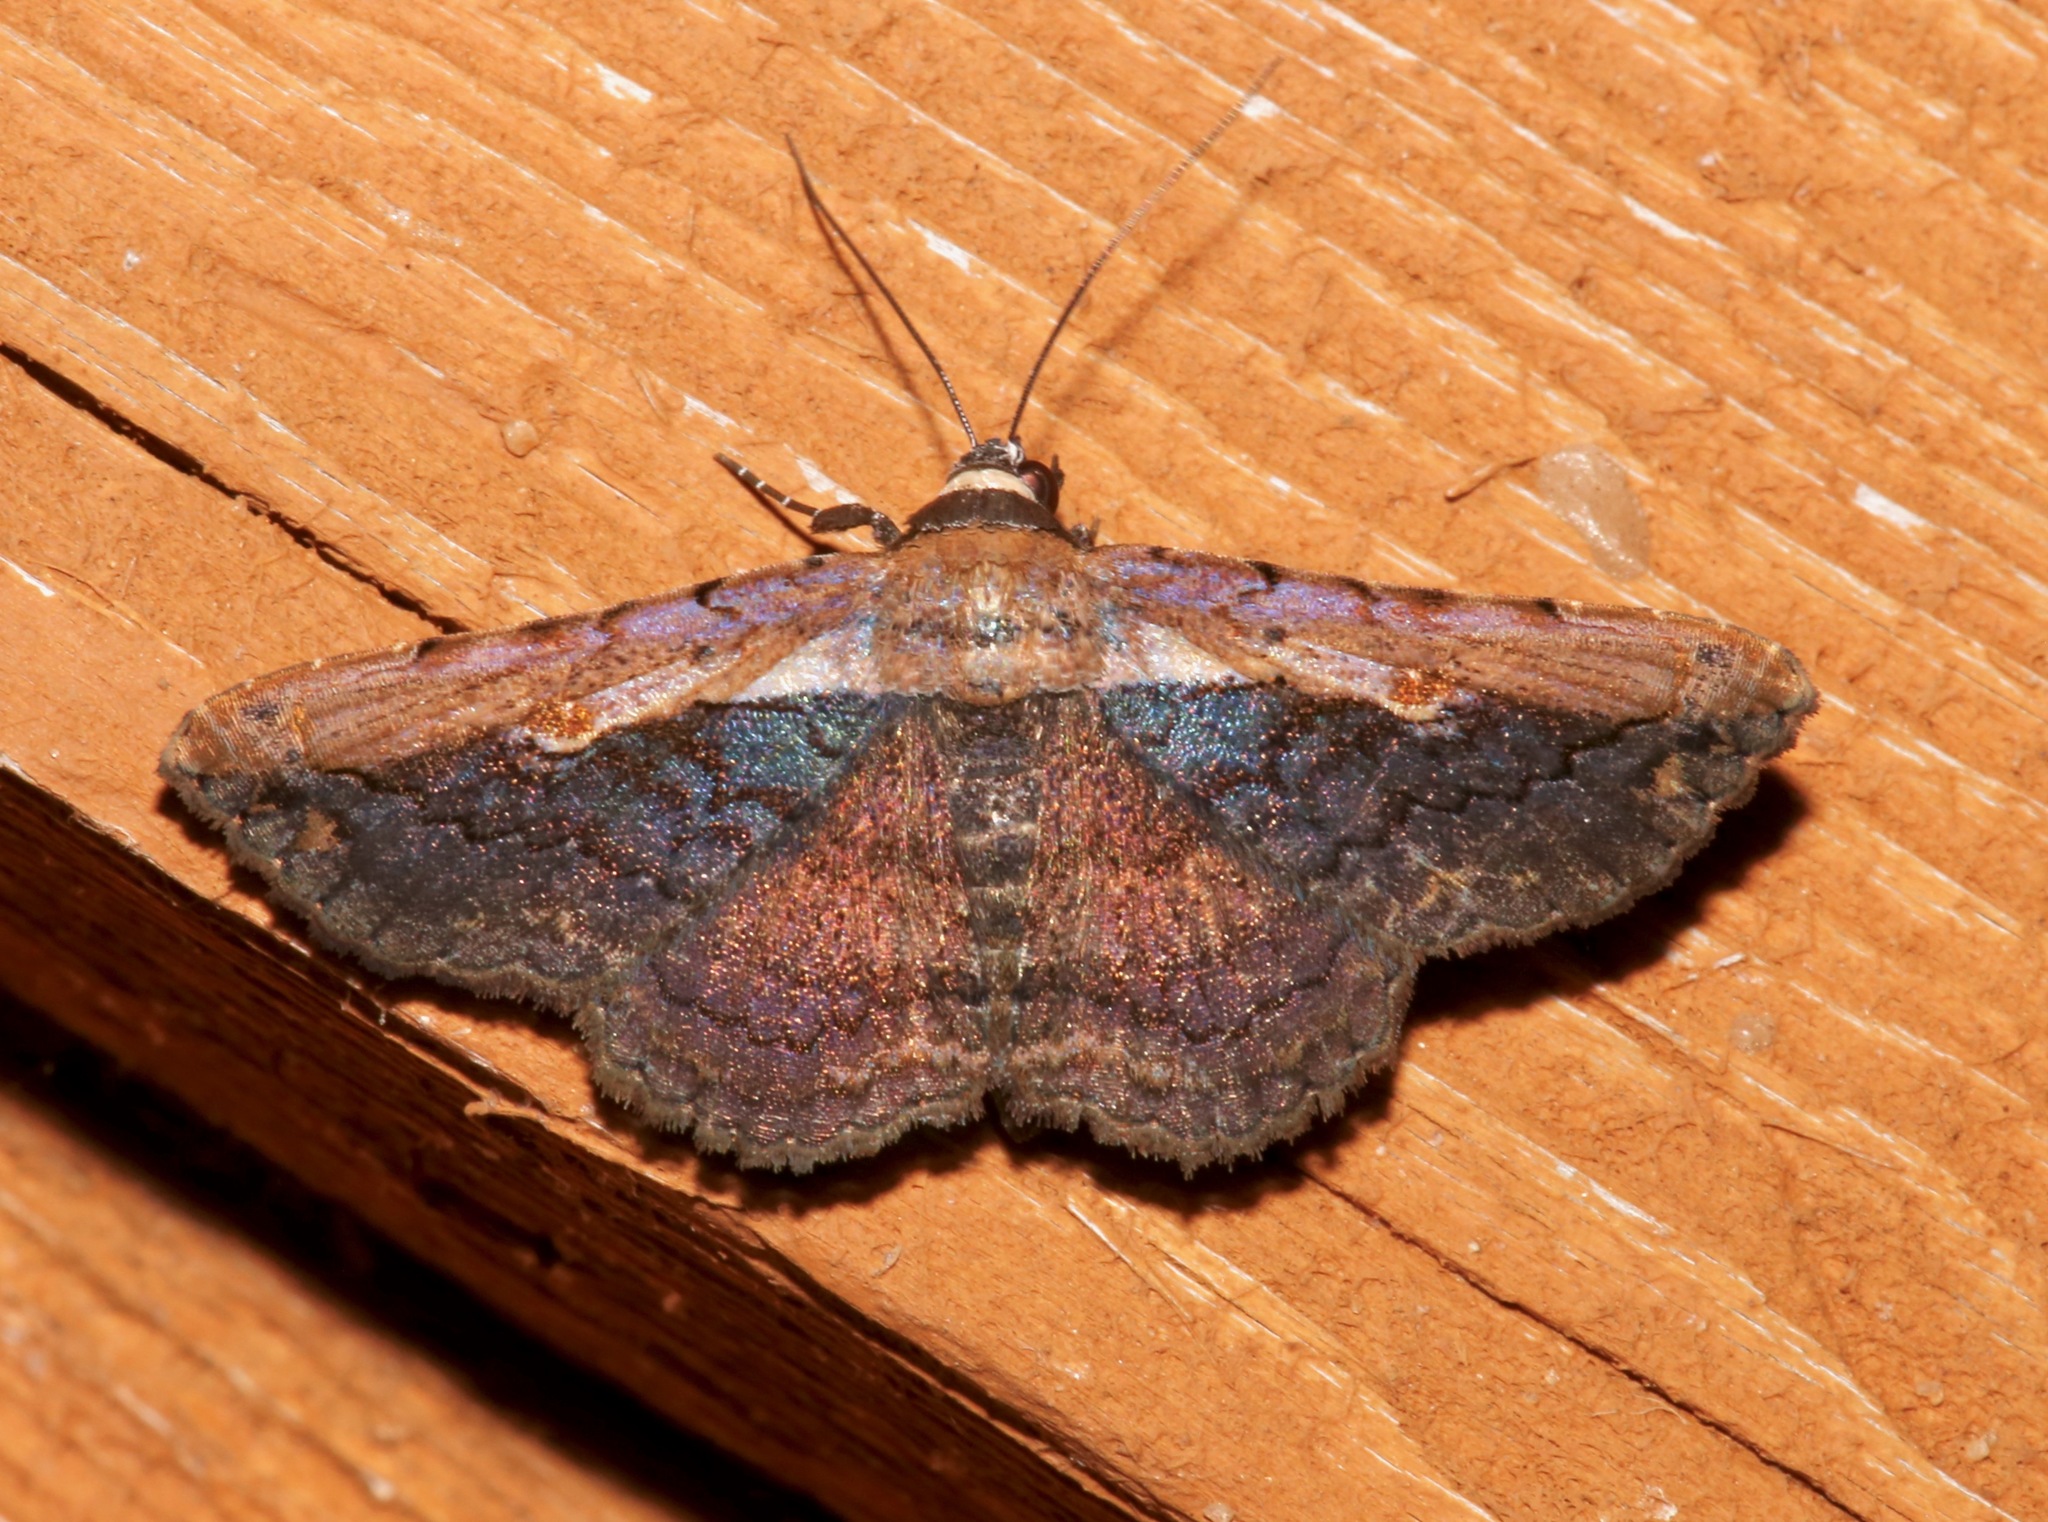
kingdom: Animalia
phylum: Arthropoda
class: Insecta
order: Lepidoptera
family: Erebidae
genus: Selenisa
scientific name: Selenisa sueroides
